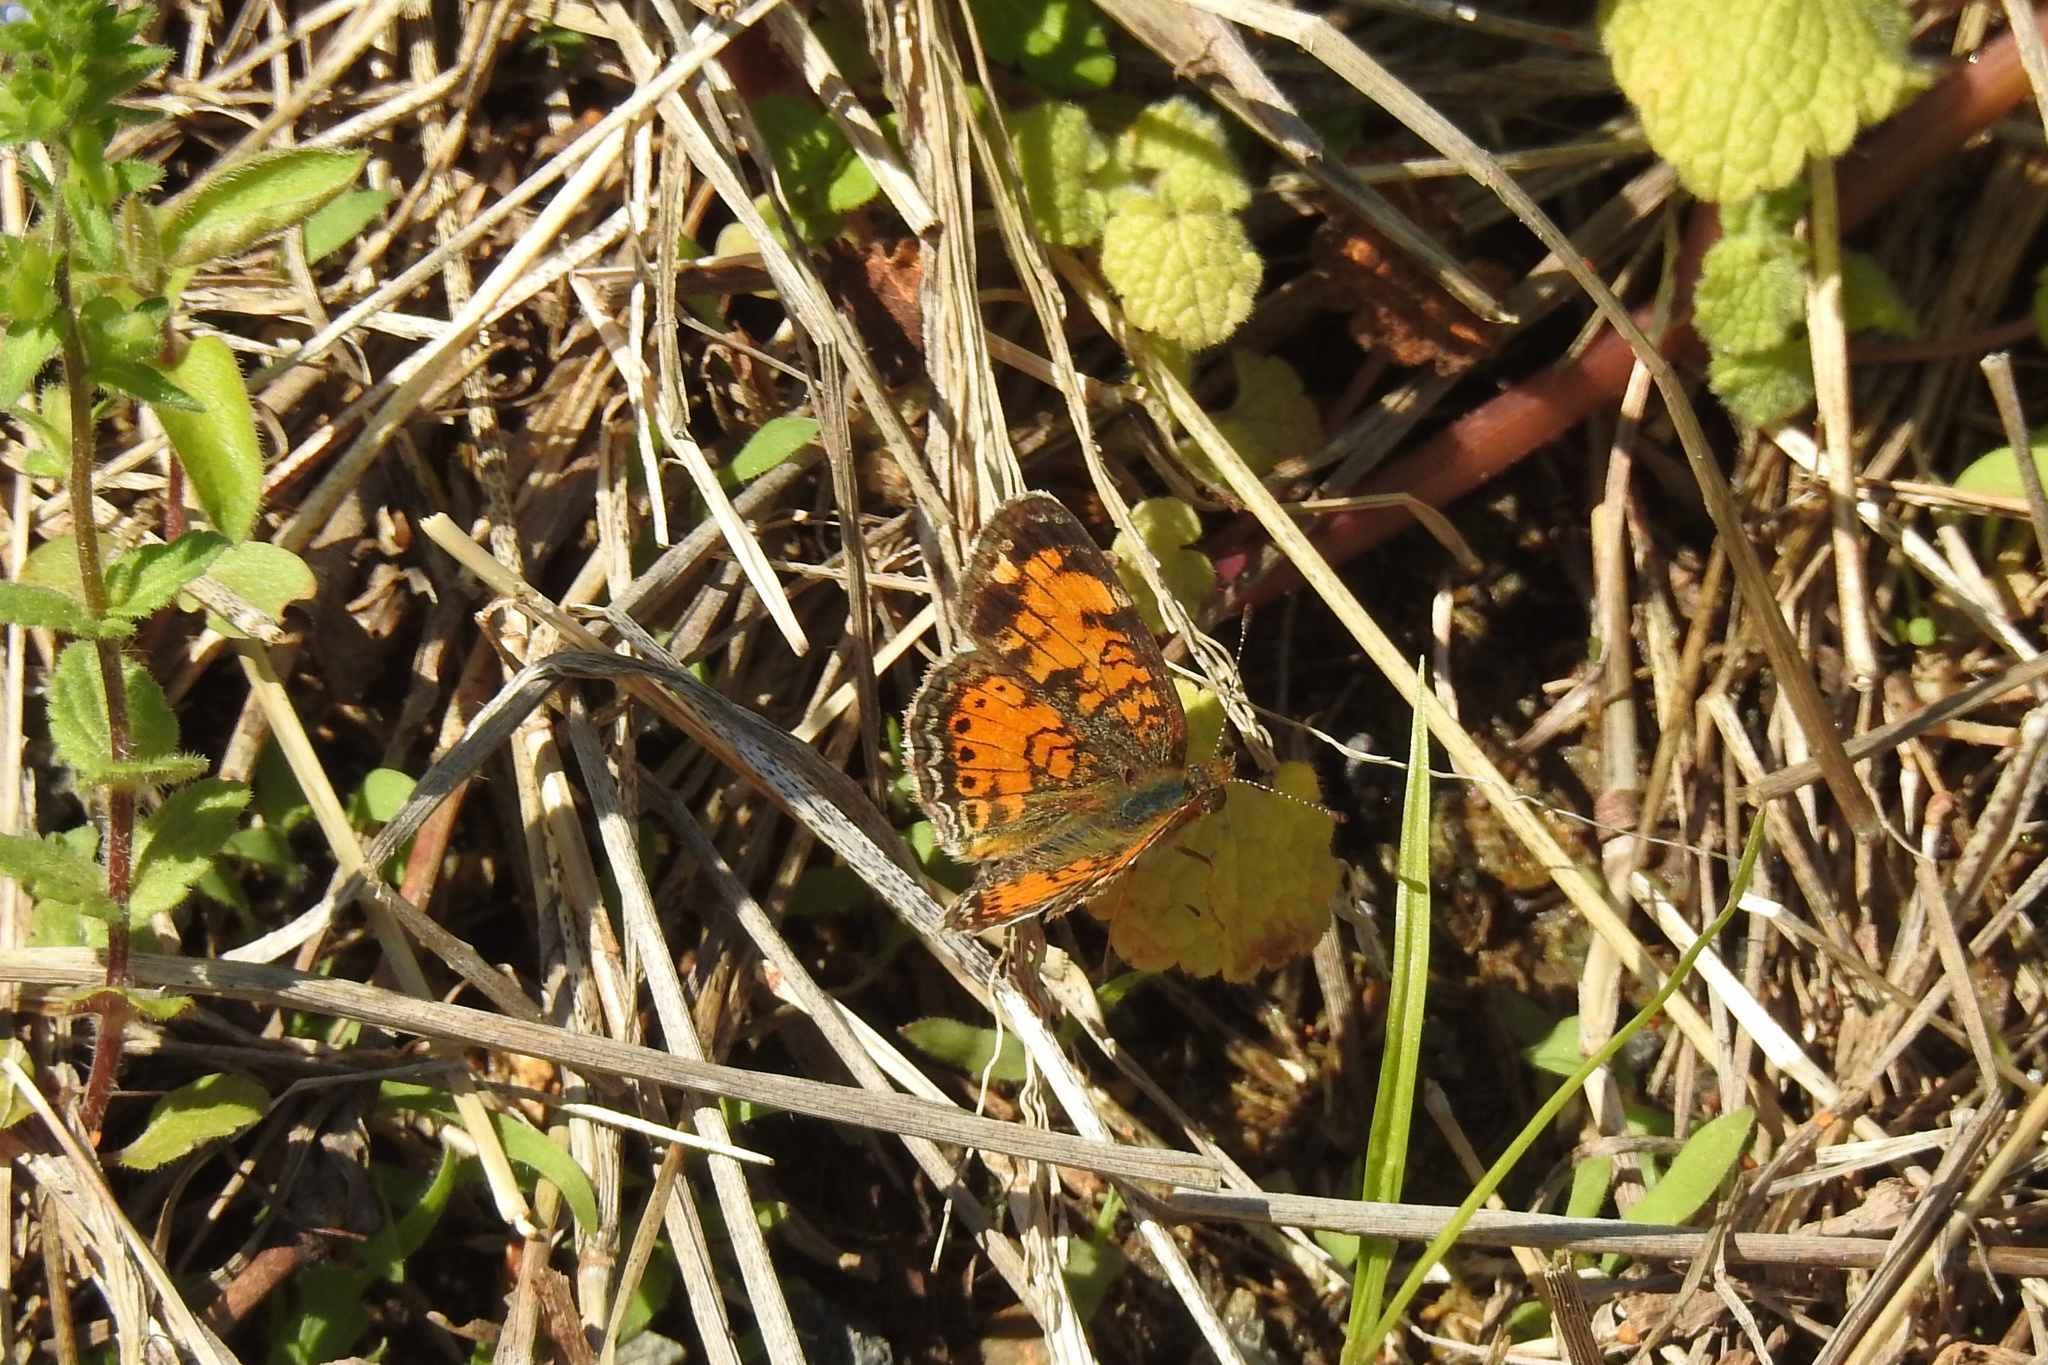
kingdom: Animalia
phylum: Arthropoda
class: Insecta
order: Lepidoptera
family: Nymphalidae
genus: Phyciodes
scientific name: Phyciodes tharos
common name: Pearl crescent
